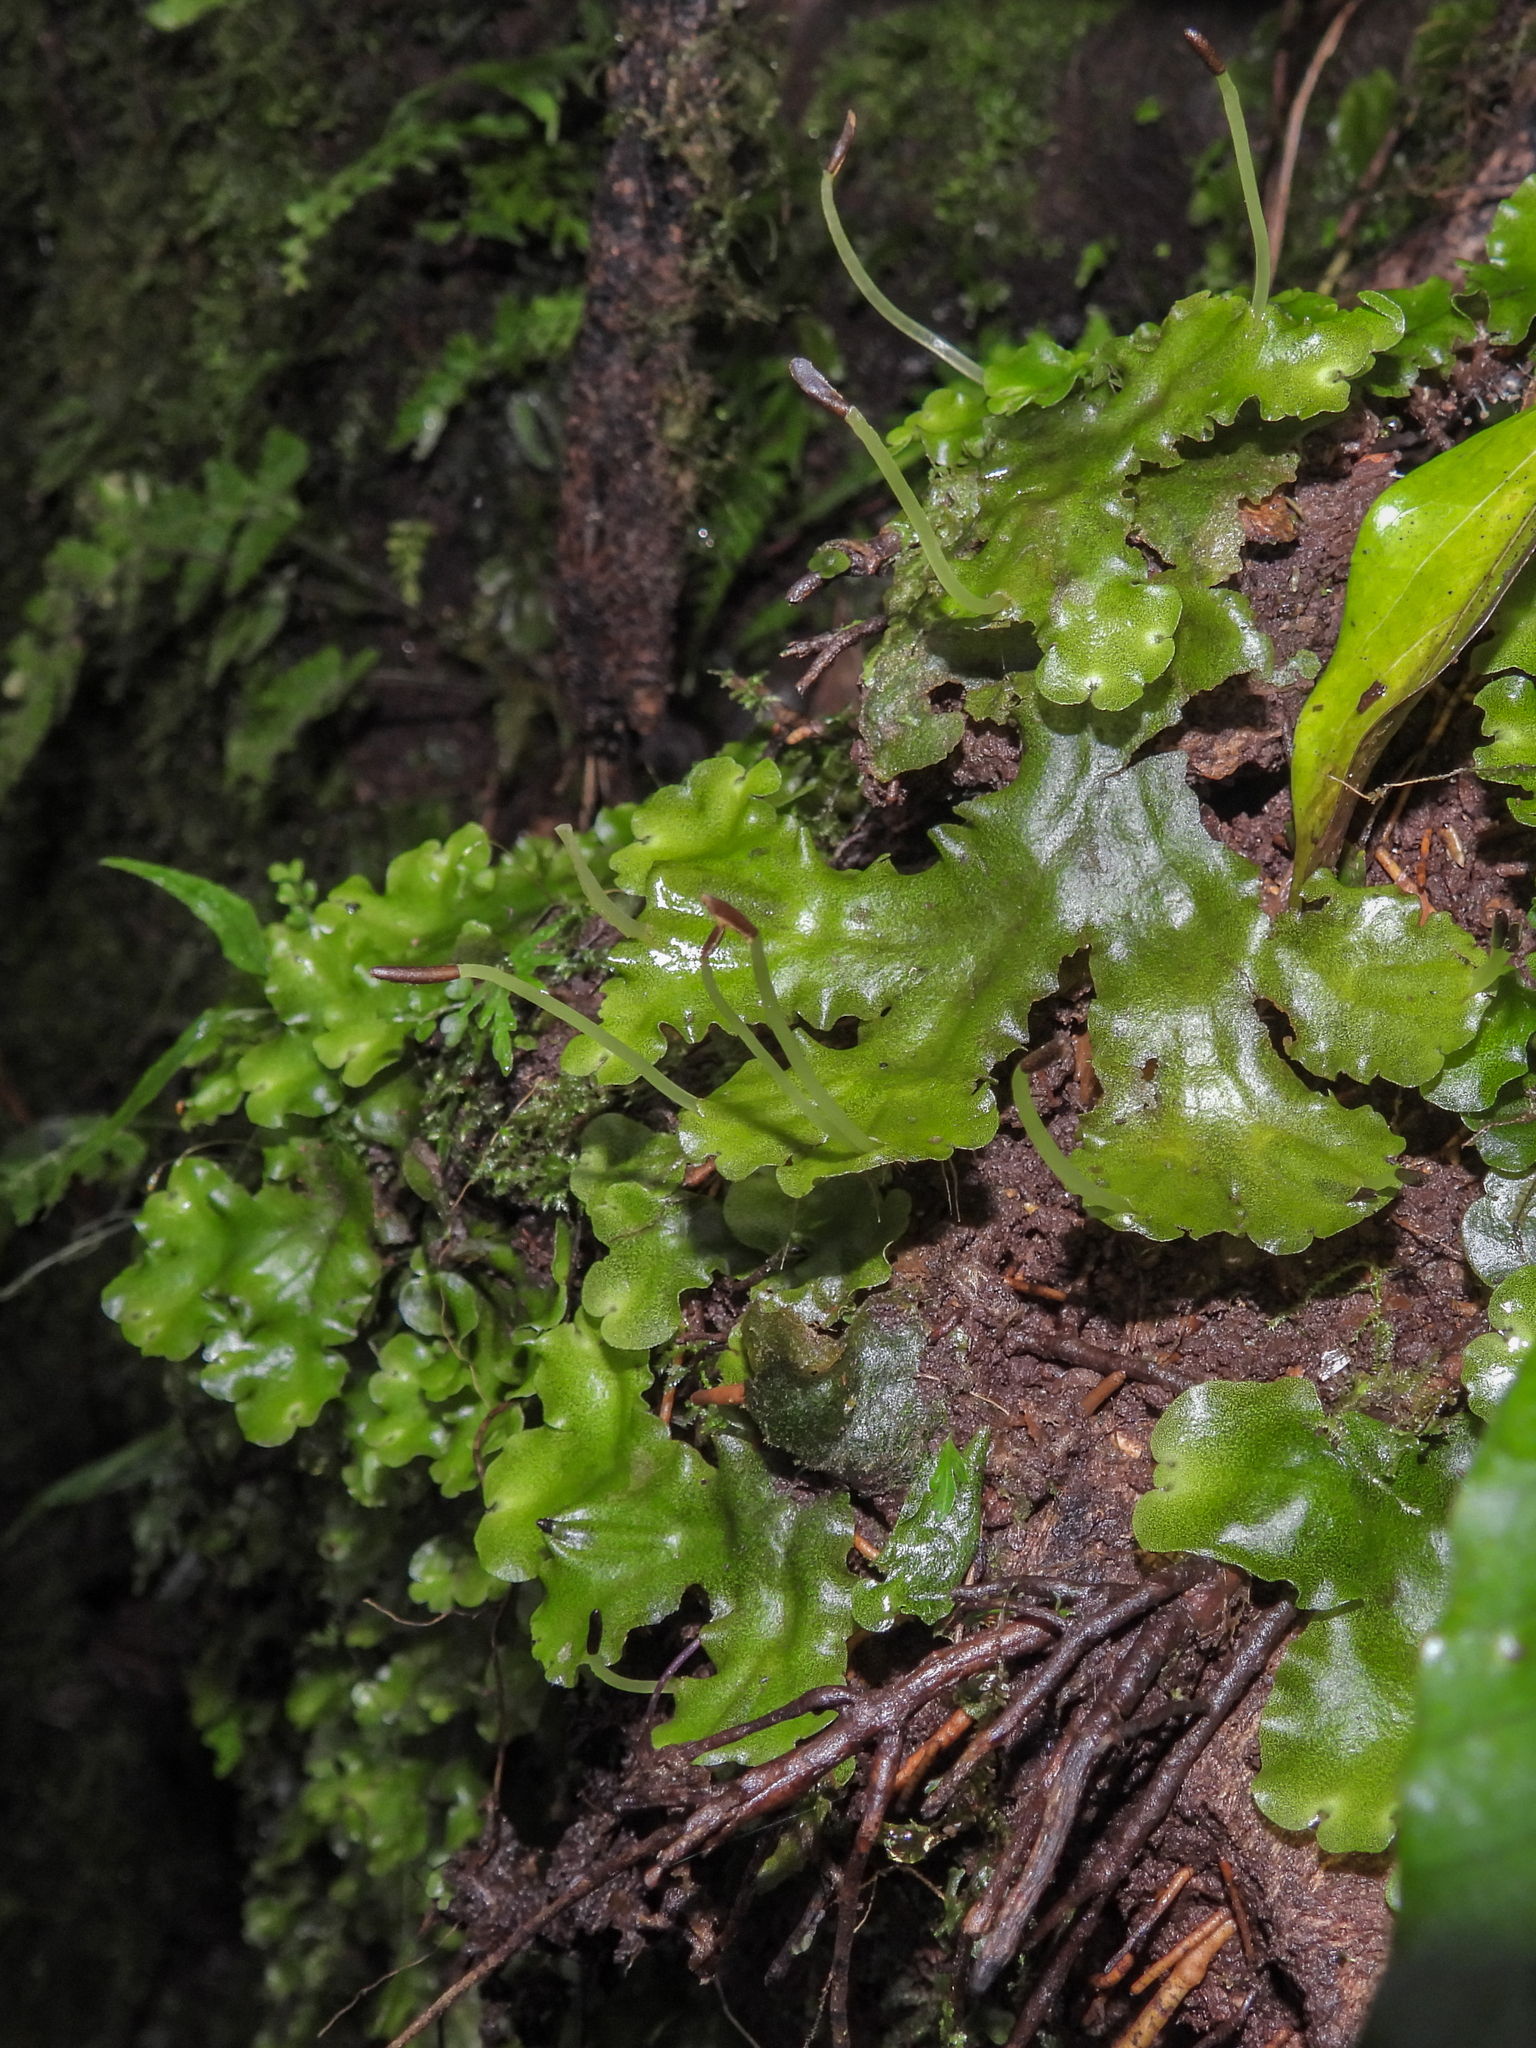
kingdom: Plantae
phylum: Marchantiophyta
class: Marchantiopsida
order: Marchantiales
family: Monocleaceae
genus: Monoclea
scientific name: Monoclea gottschei
